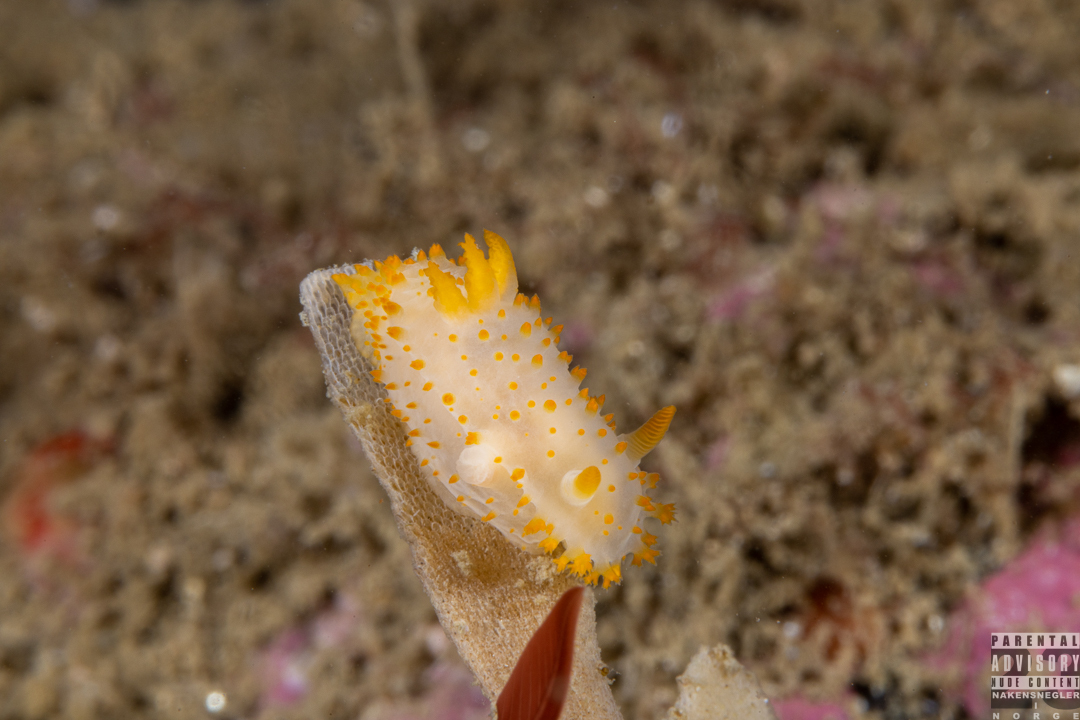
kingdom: Animalia
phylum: Mollusca
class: Gastropoda
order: Nudibranchia
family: Polyceridae
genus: Crimora
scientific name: Crimora papillata
